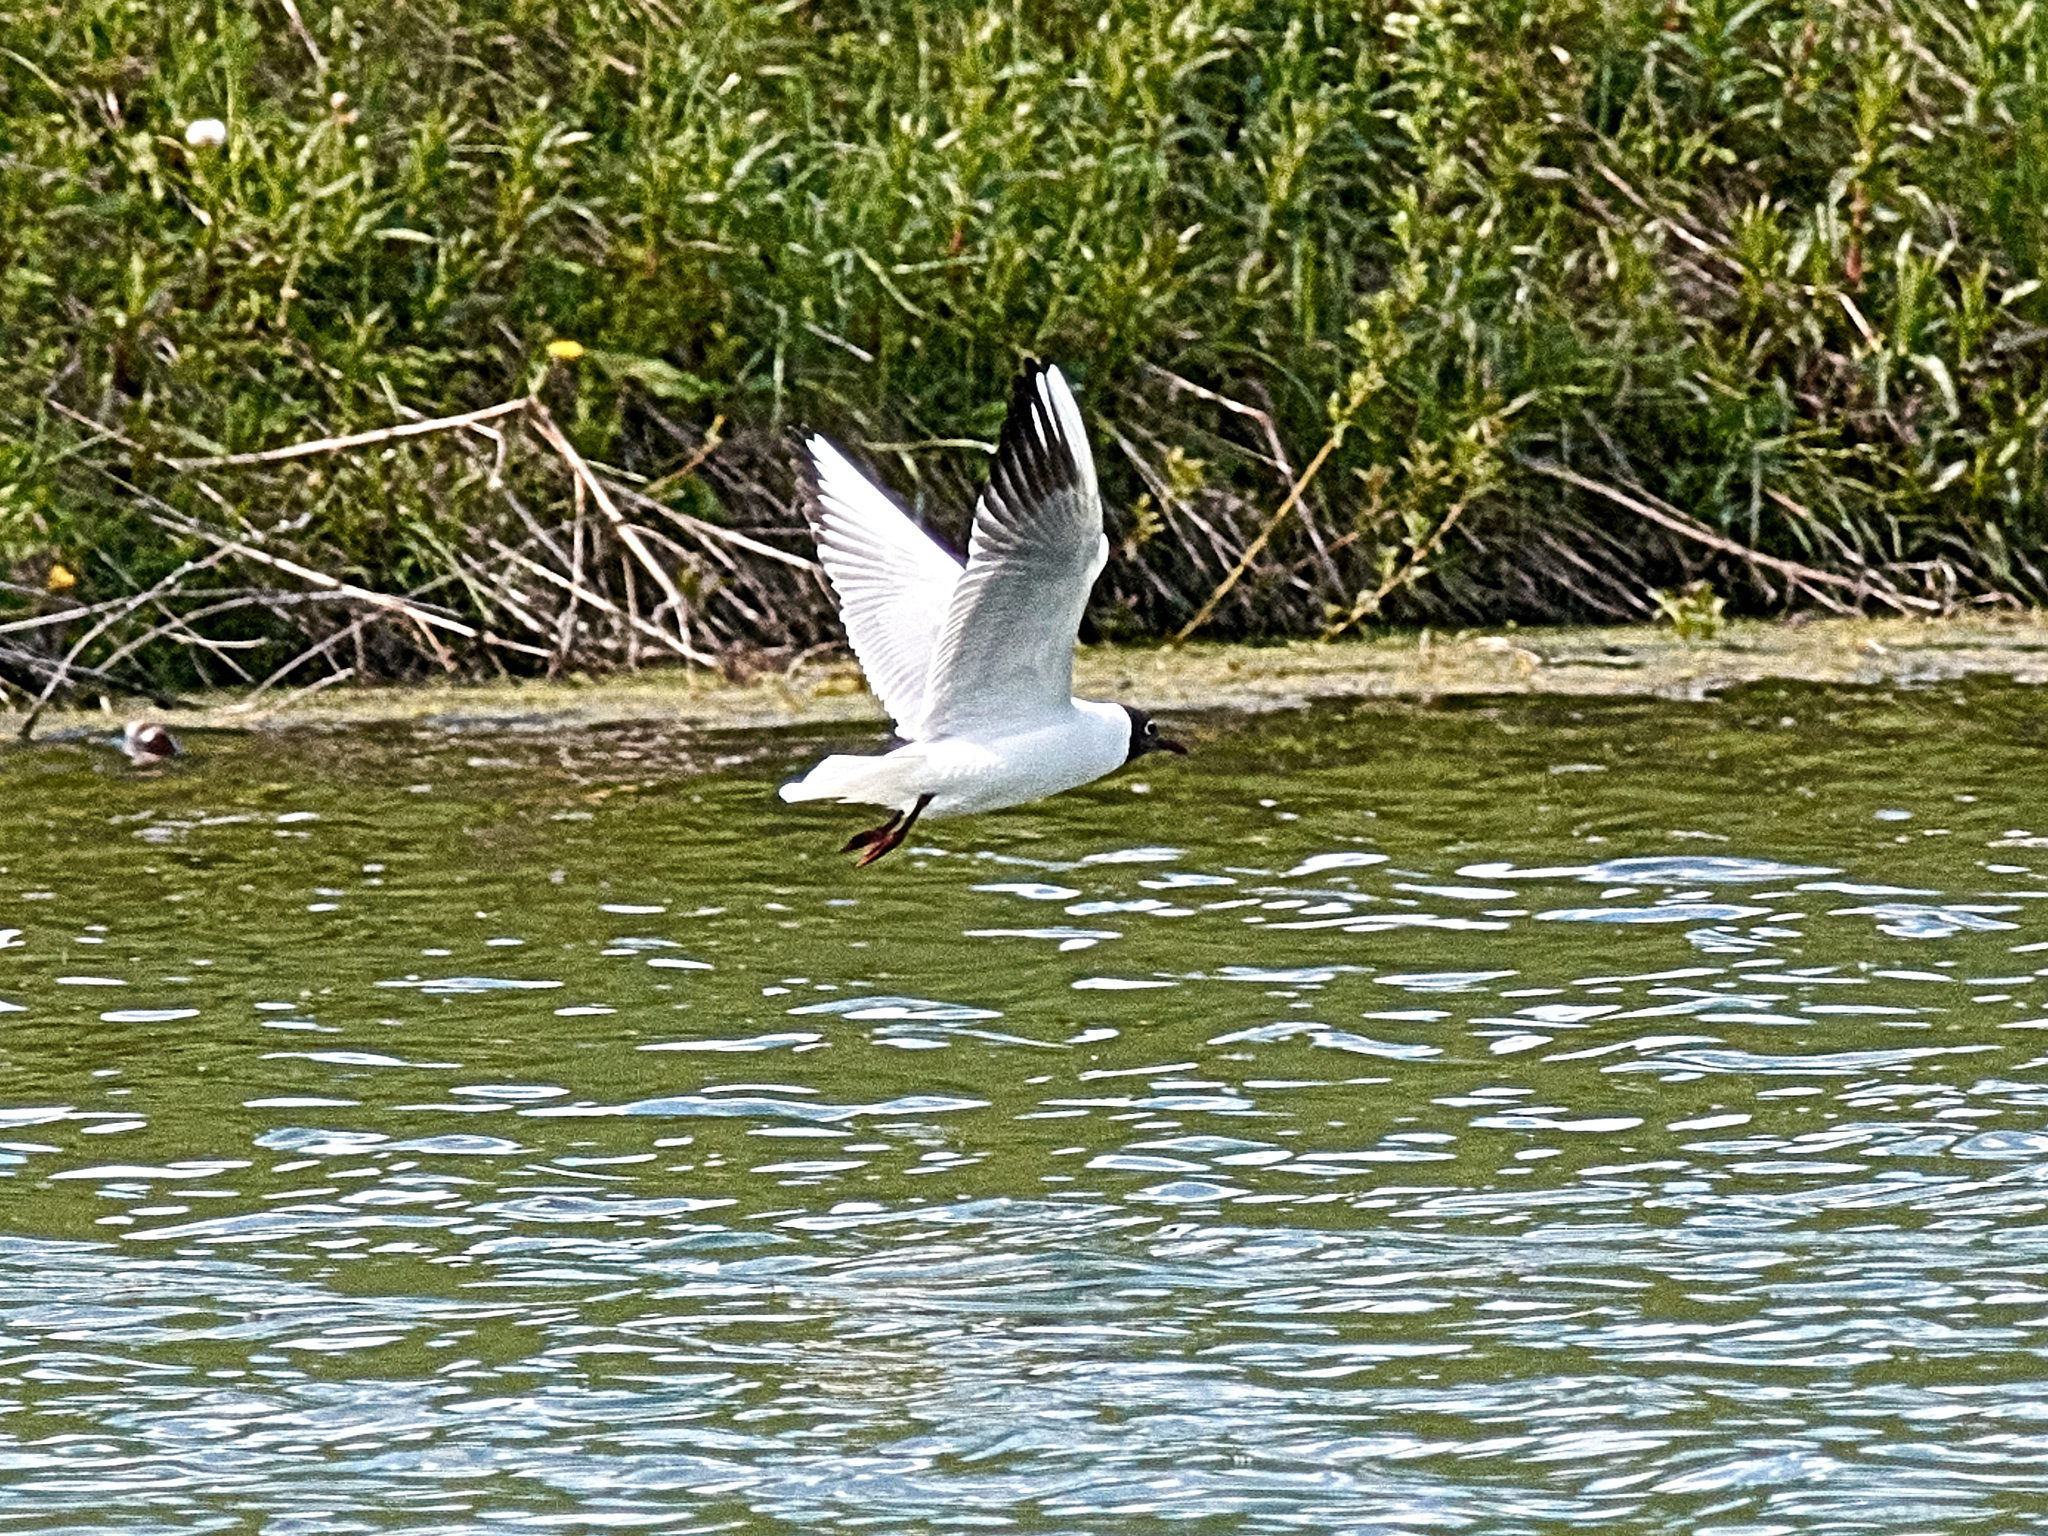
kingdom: Animalia
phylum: Chordata
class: Aves
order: Charadriiformes
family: Laridae
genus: Chroicocephalus
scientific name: Chroicocephalus ridibundus
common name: Black-headed gull
